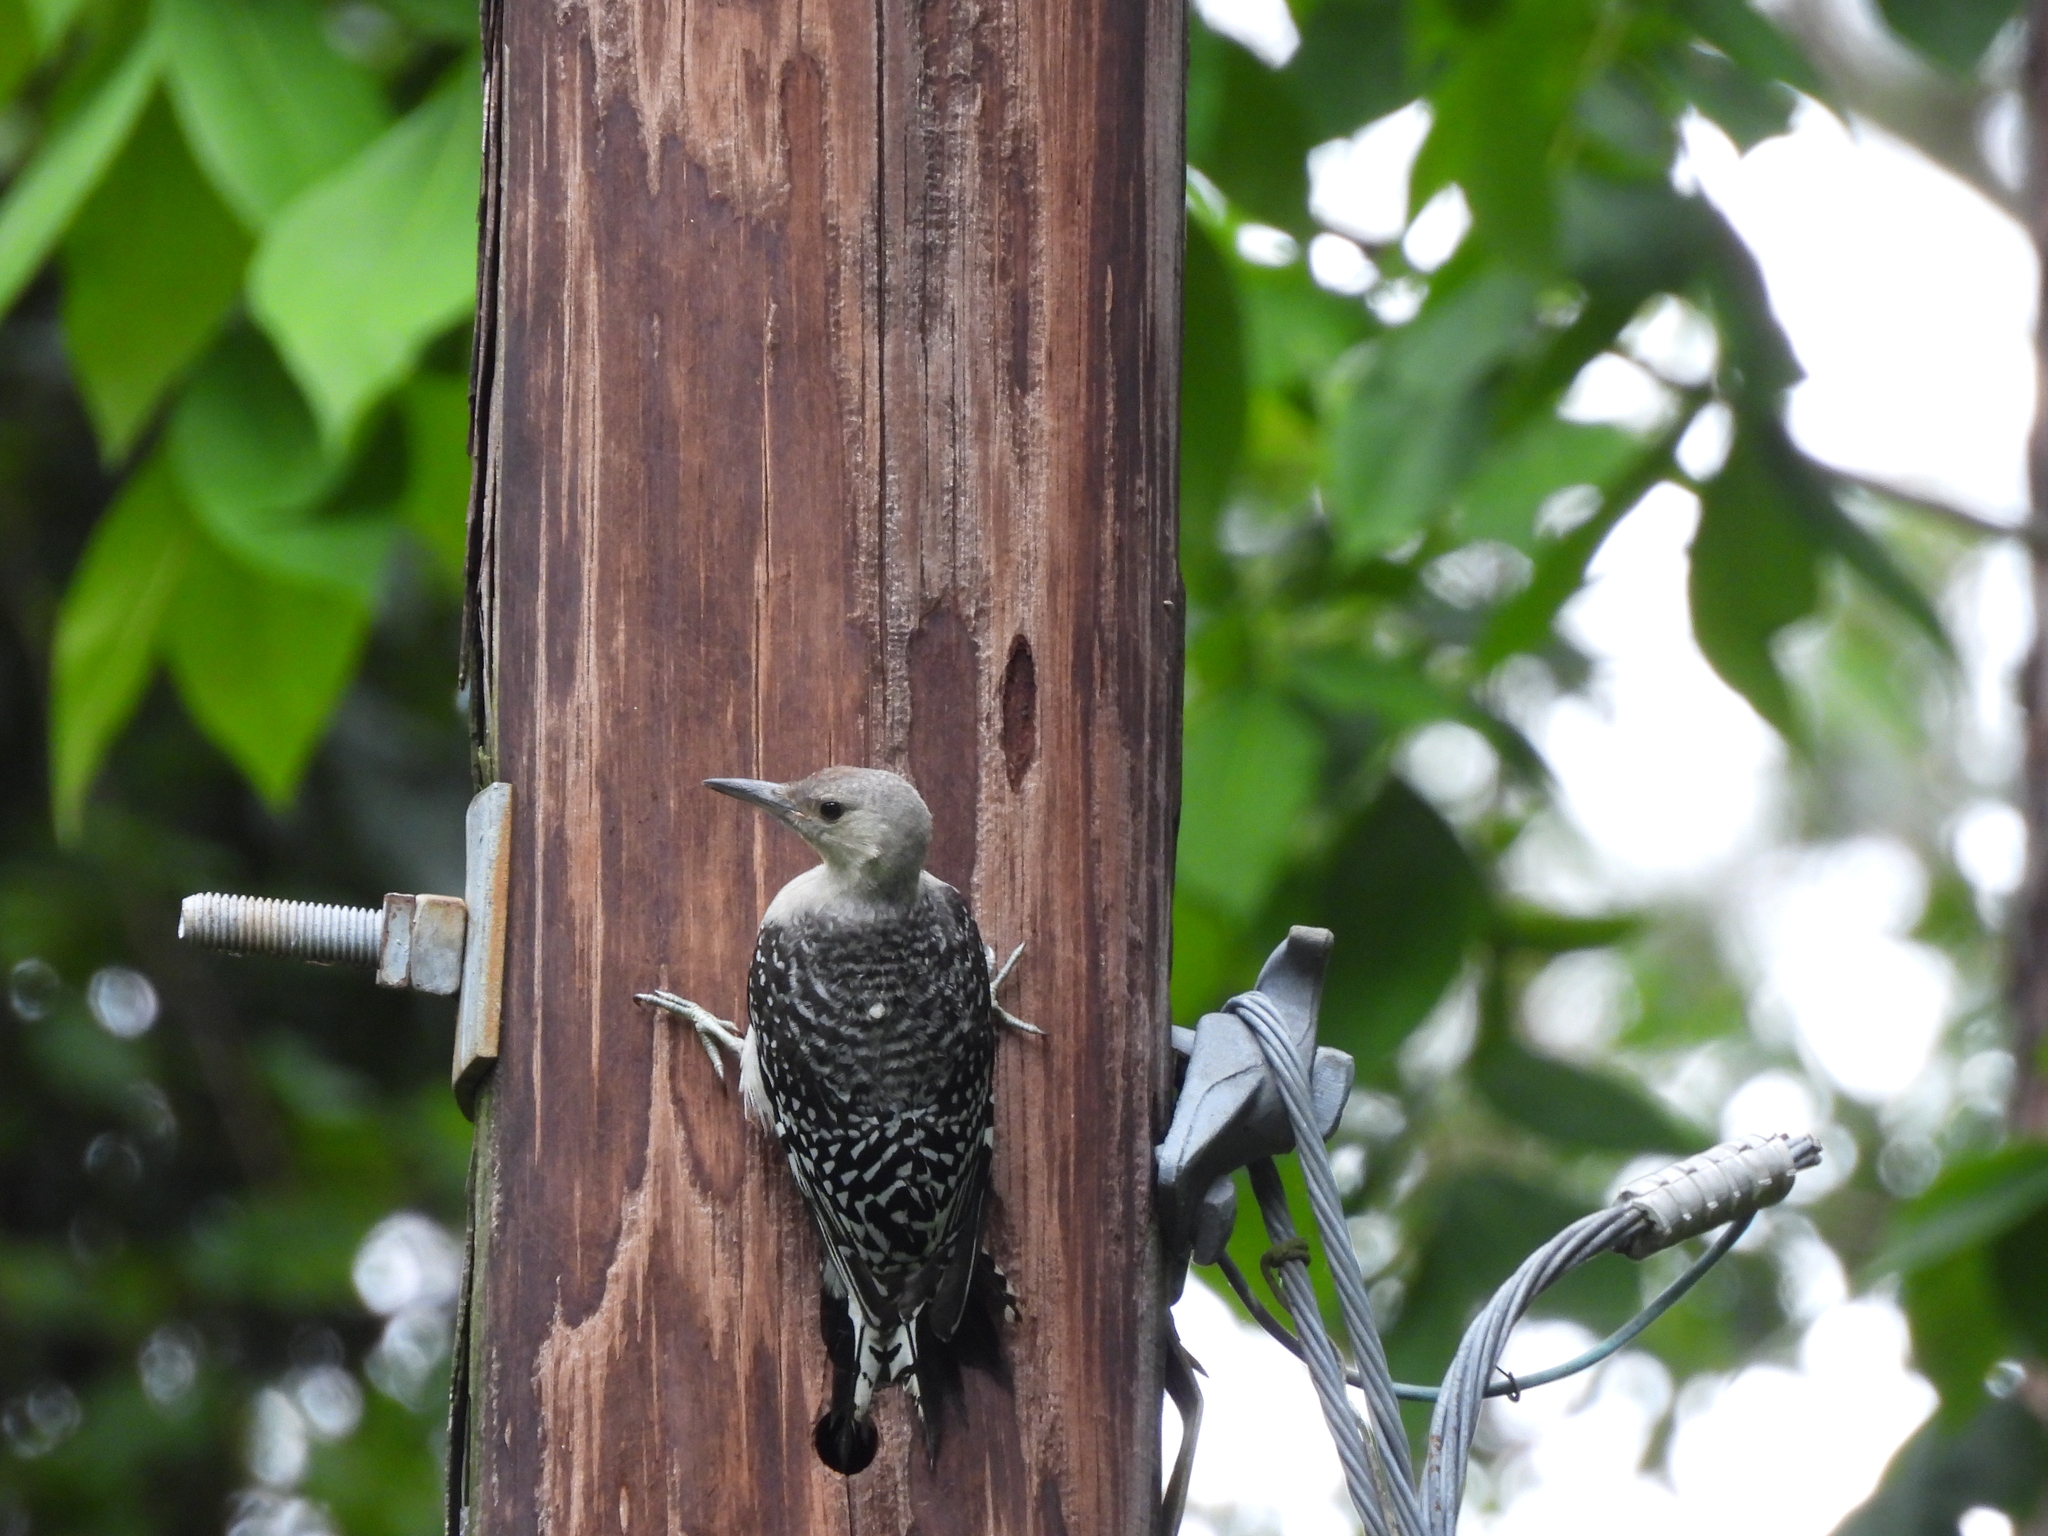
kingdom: Animalia
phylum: Chordata
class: Aves
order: Piciformes
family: Picidae
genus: Melanerpes
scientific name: Melanerpes carolinus
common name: Red-bellied woodpecker
